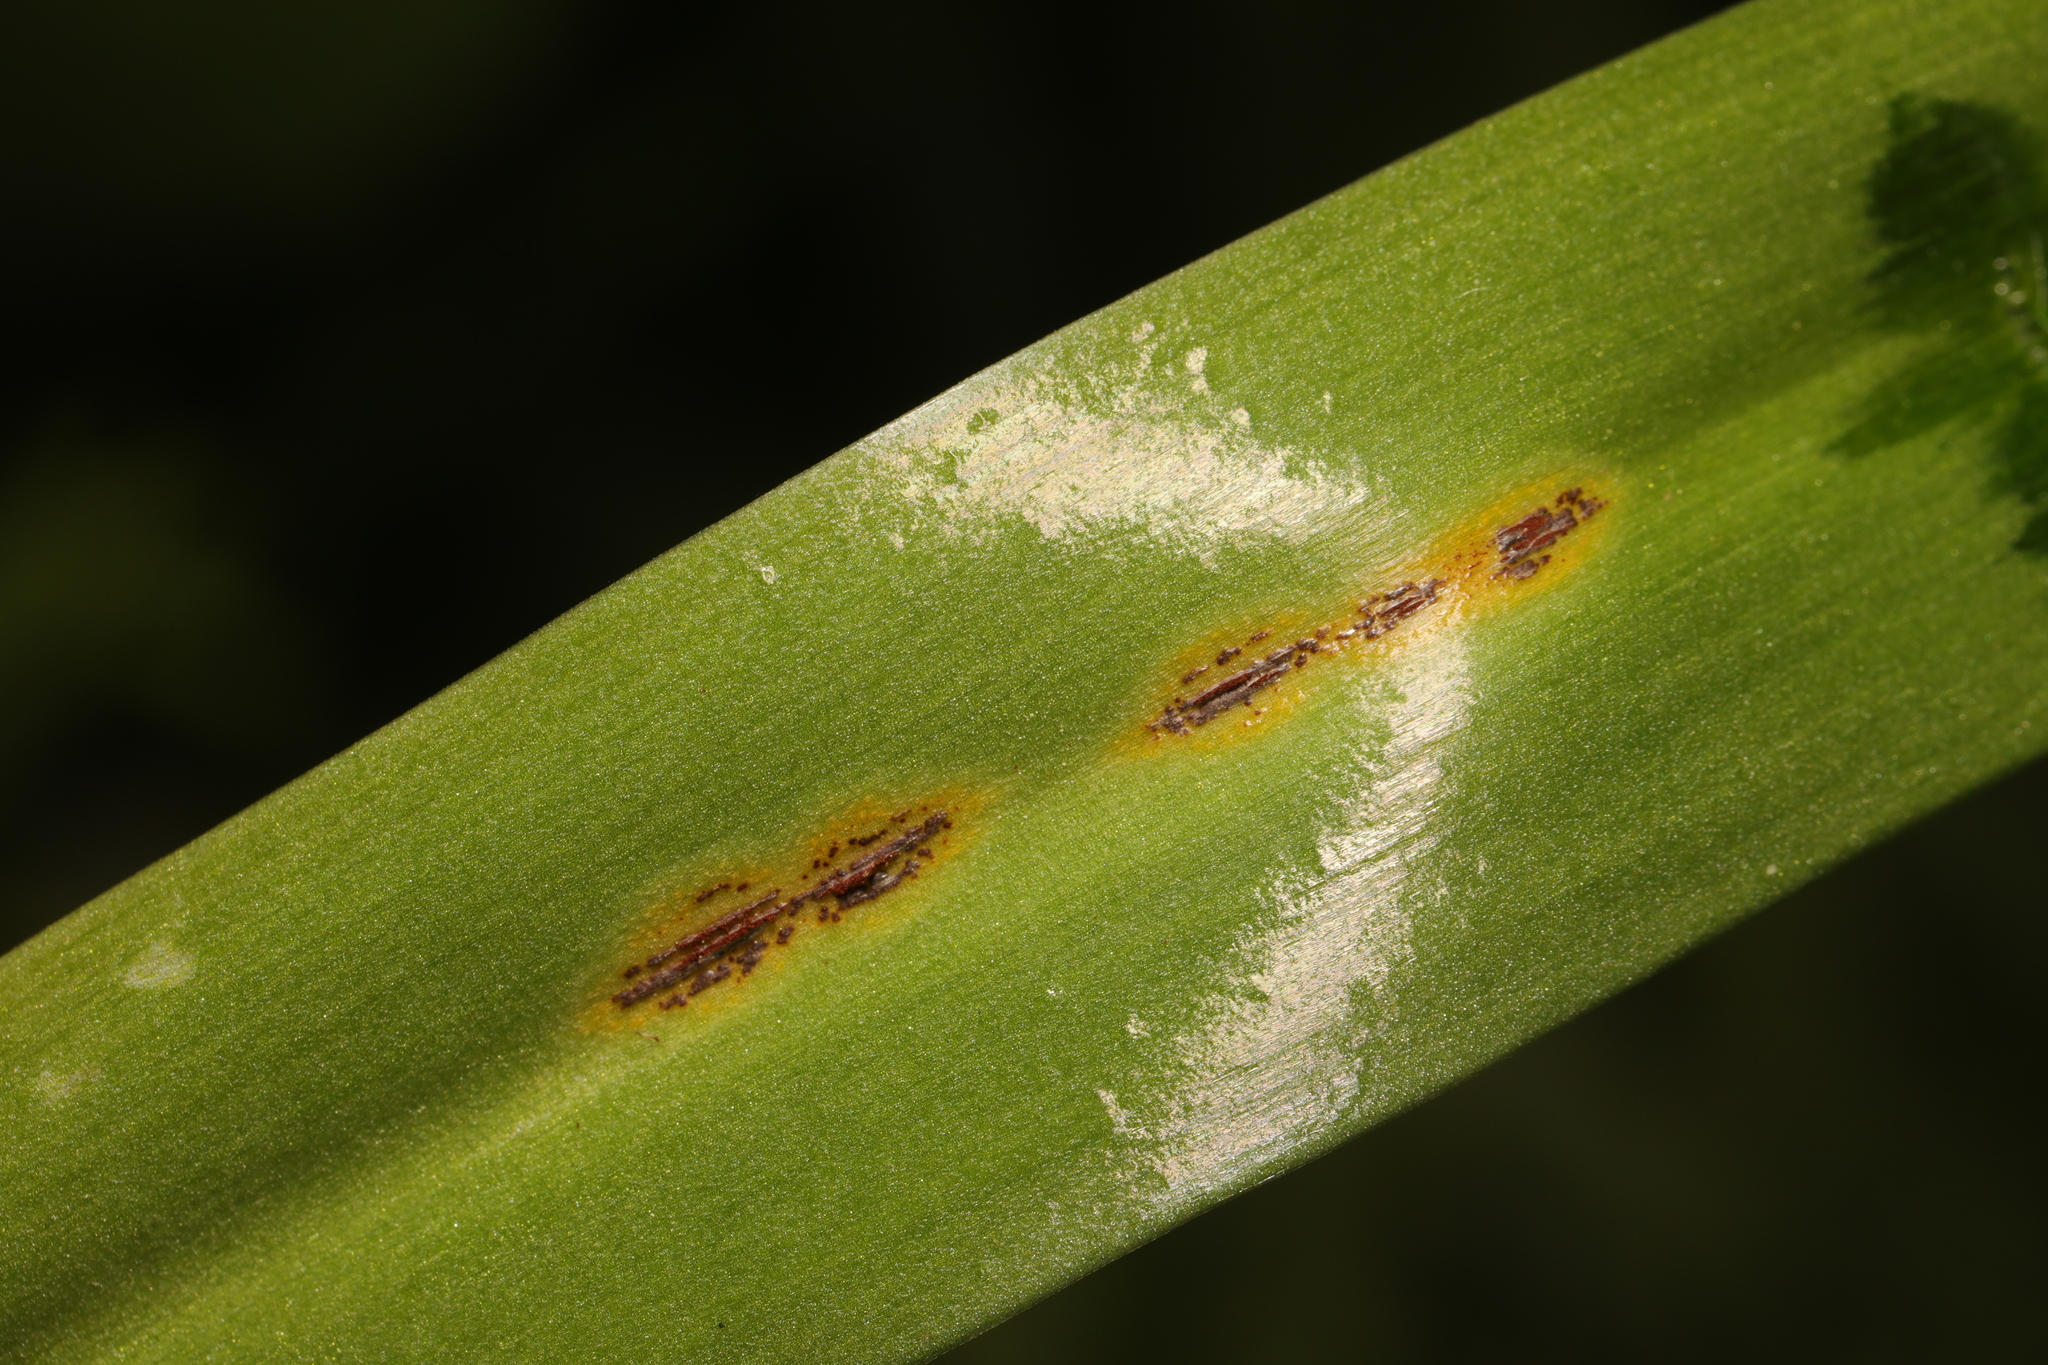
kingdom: Fungi
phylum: Basidiomycota
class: Pucciniomycetes
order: Pucciniales
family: Pucciniaceae
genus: Uromyces
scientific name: Uromyces hyacinthi
